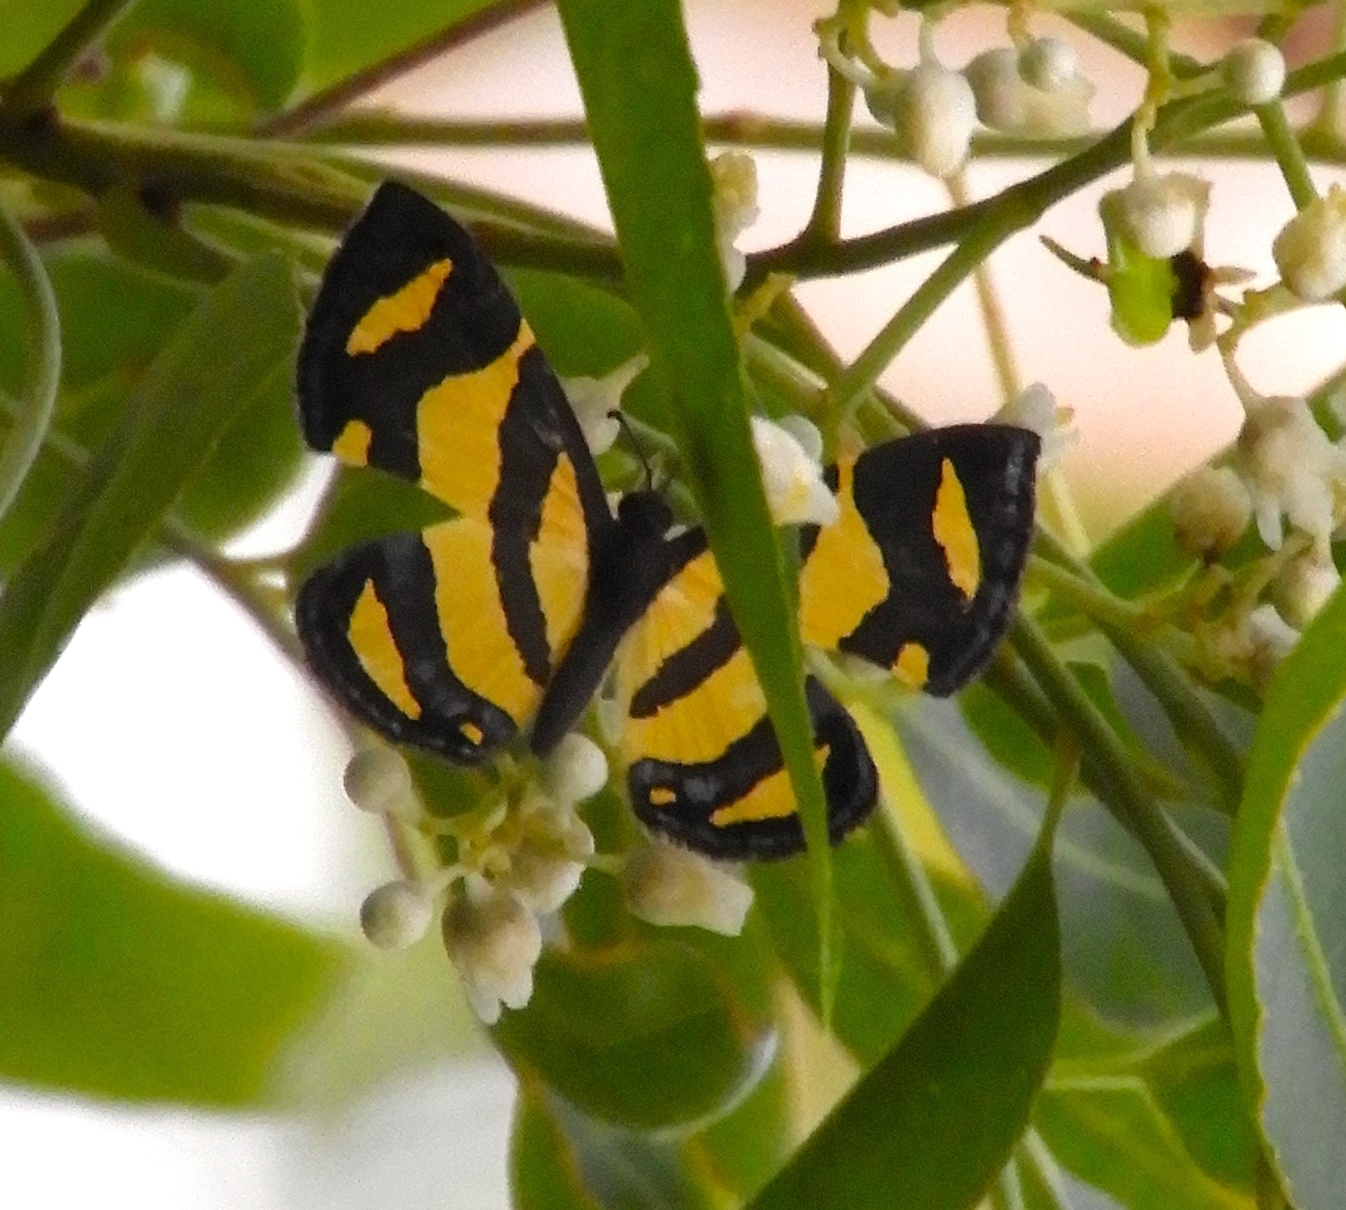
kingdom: Animalia
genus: Baeotis
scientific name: Baeotis zonata
